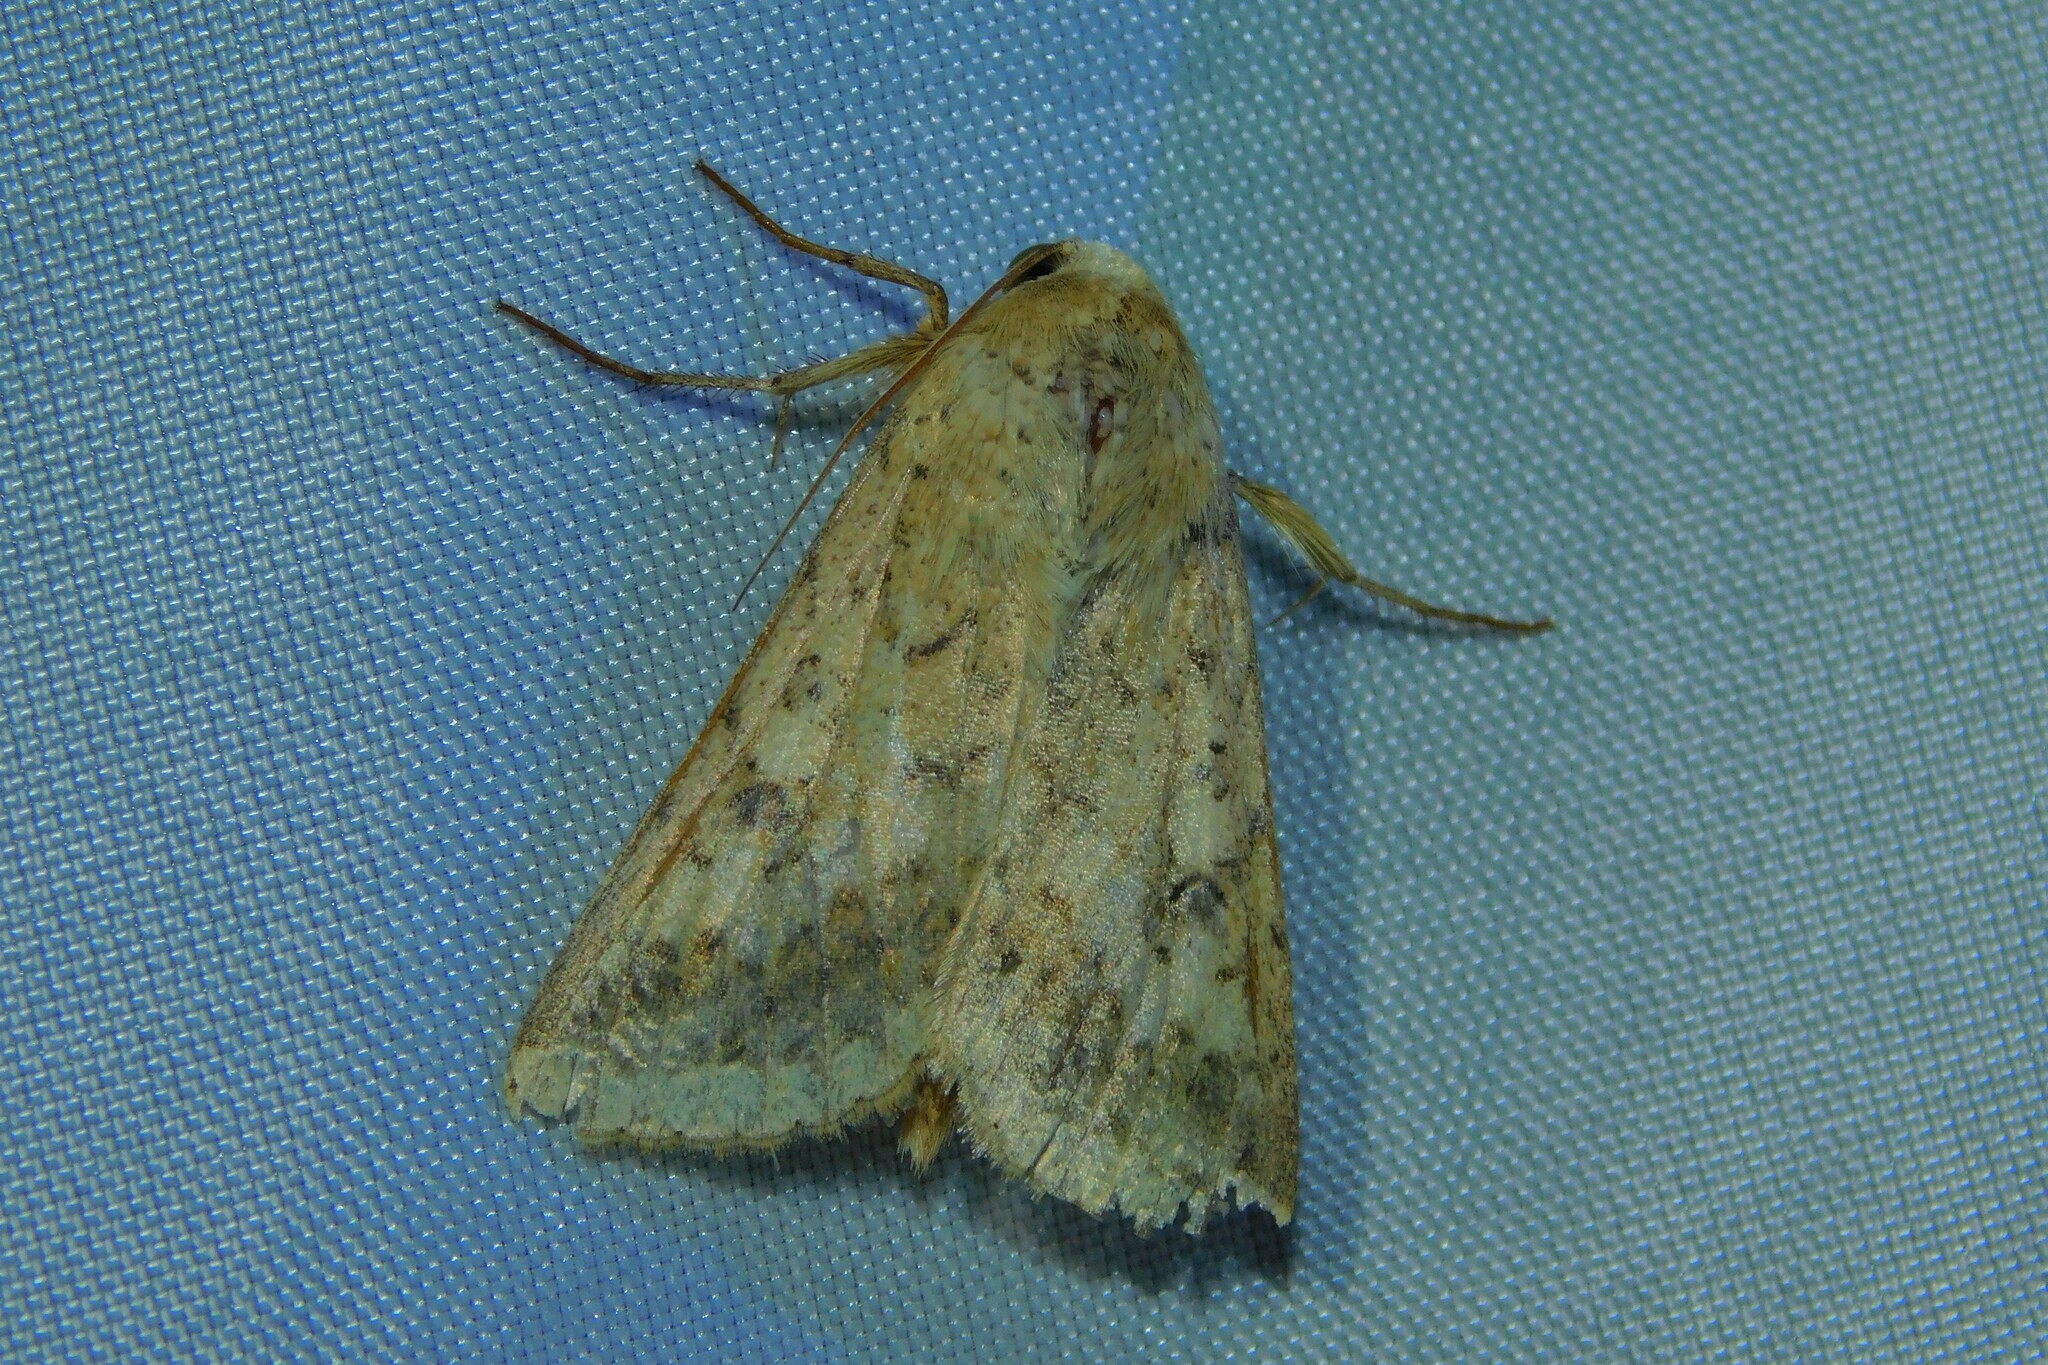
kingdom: Animalia
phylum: Arthropoda
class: Insecta
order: Lepidoptera
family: Noctuidae
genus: Helicoverpa
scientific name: Helicoverpa armigera
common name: Cotton bollworm
